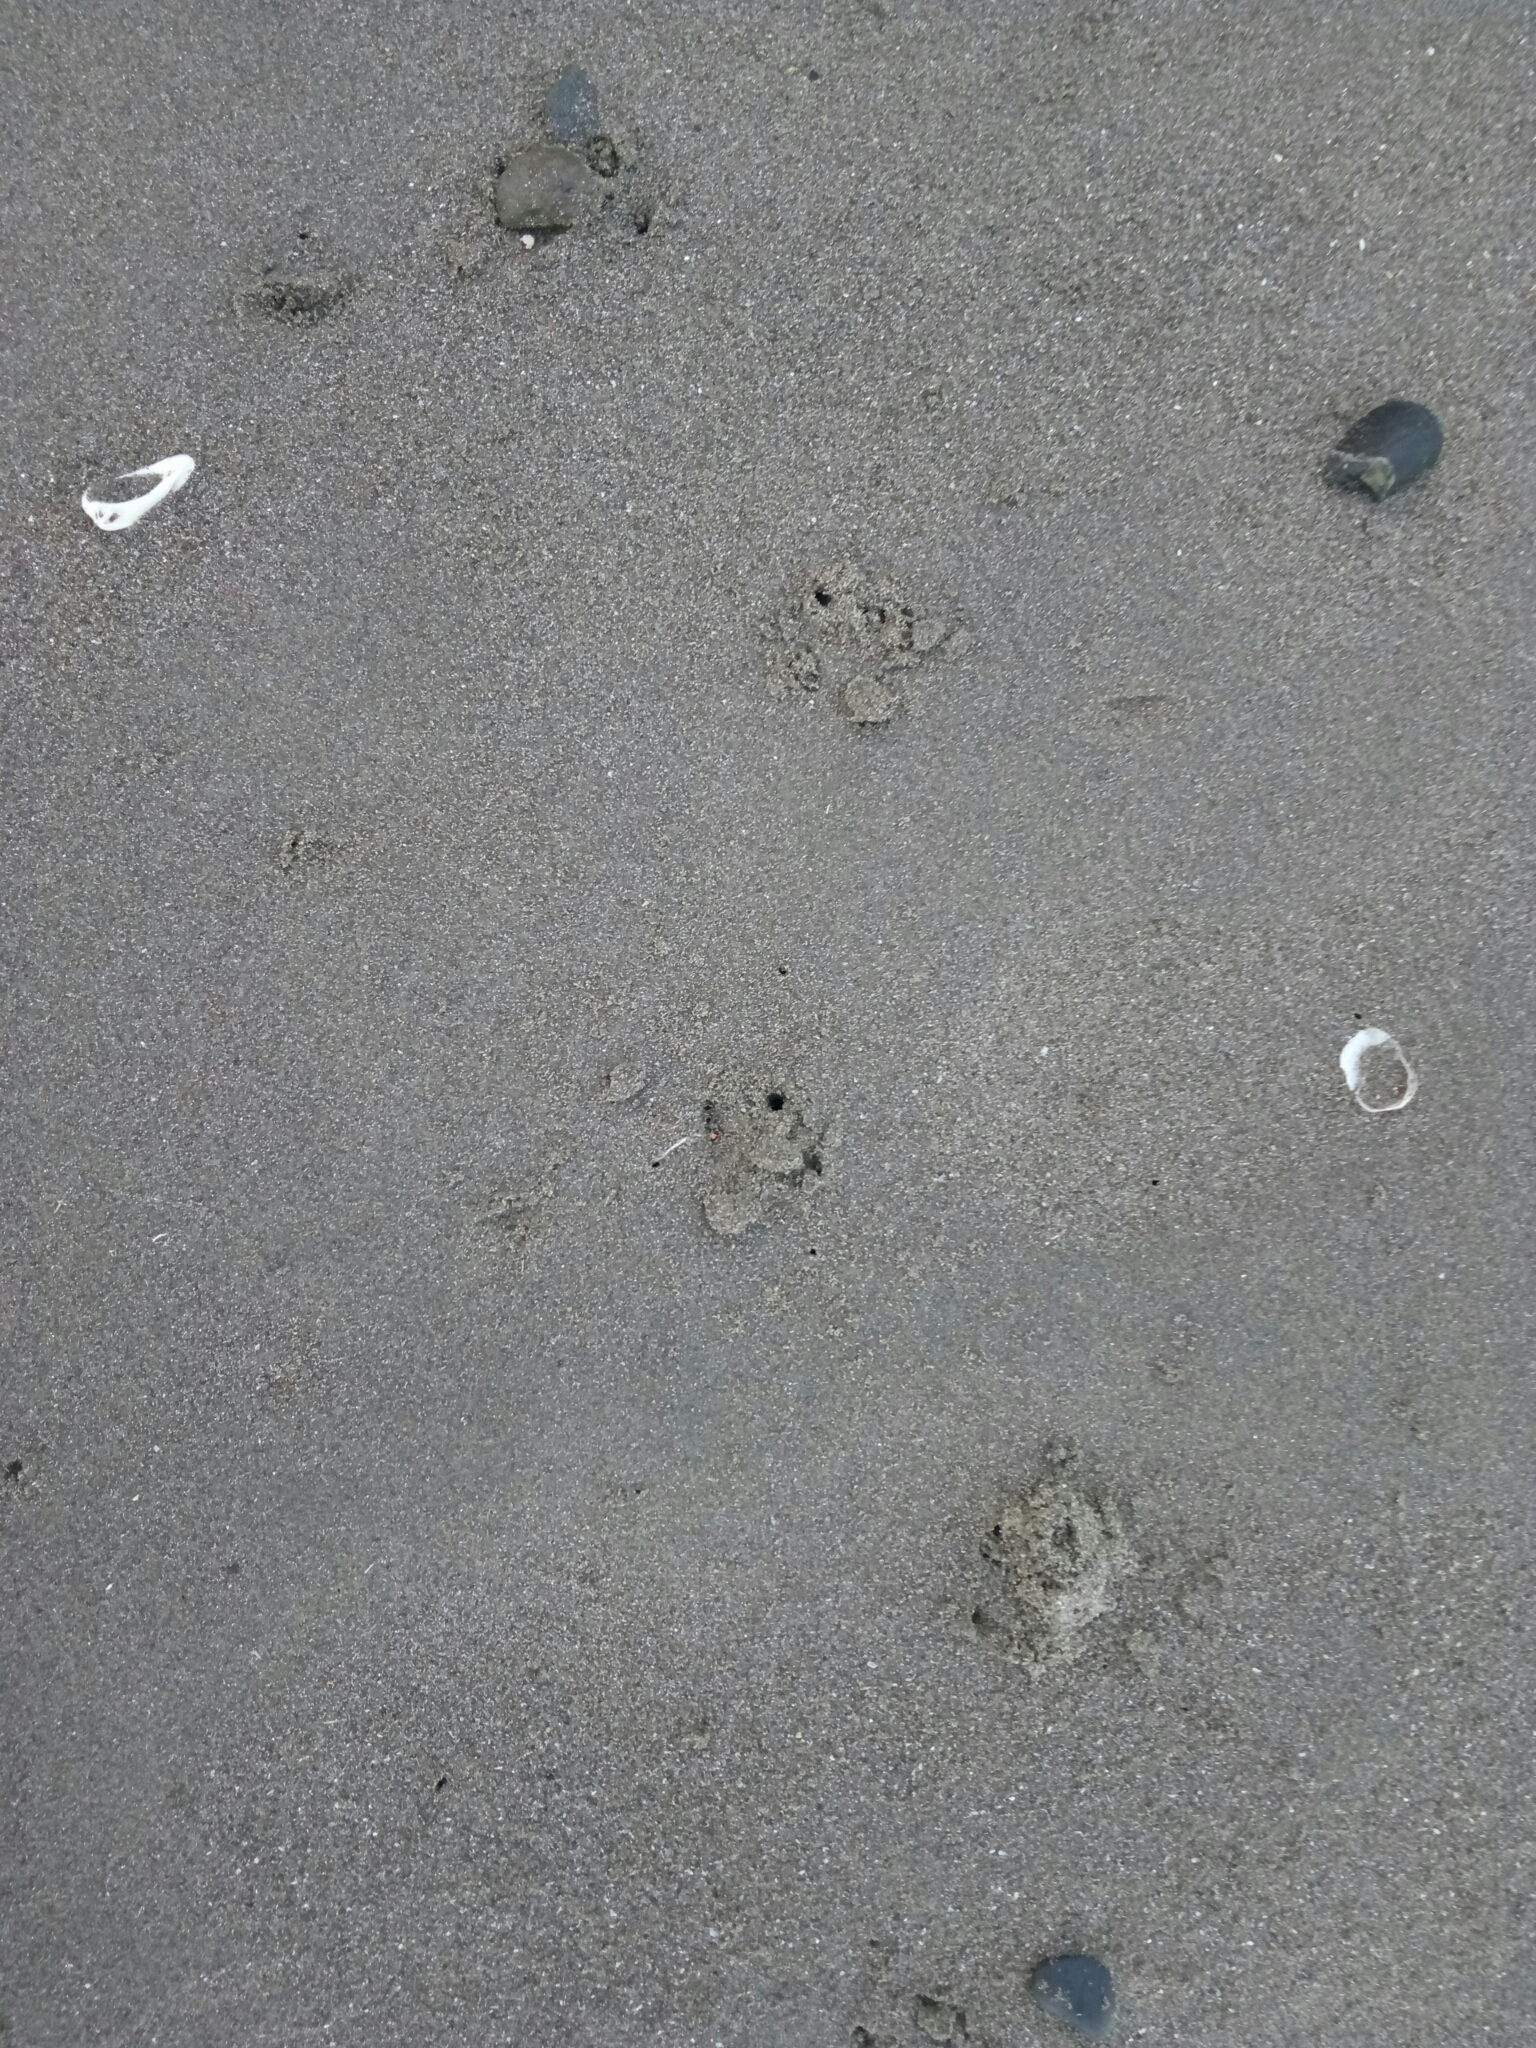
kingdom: Animalia
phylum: Chordata
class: Aves
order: Sphenisciformes
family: Spheniscidae
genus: Eudyptula
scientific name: Eudyptula minor
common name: Little penguin
